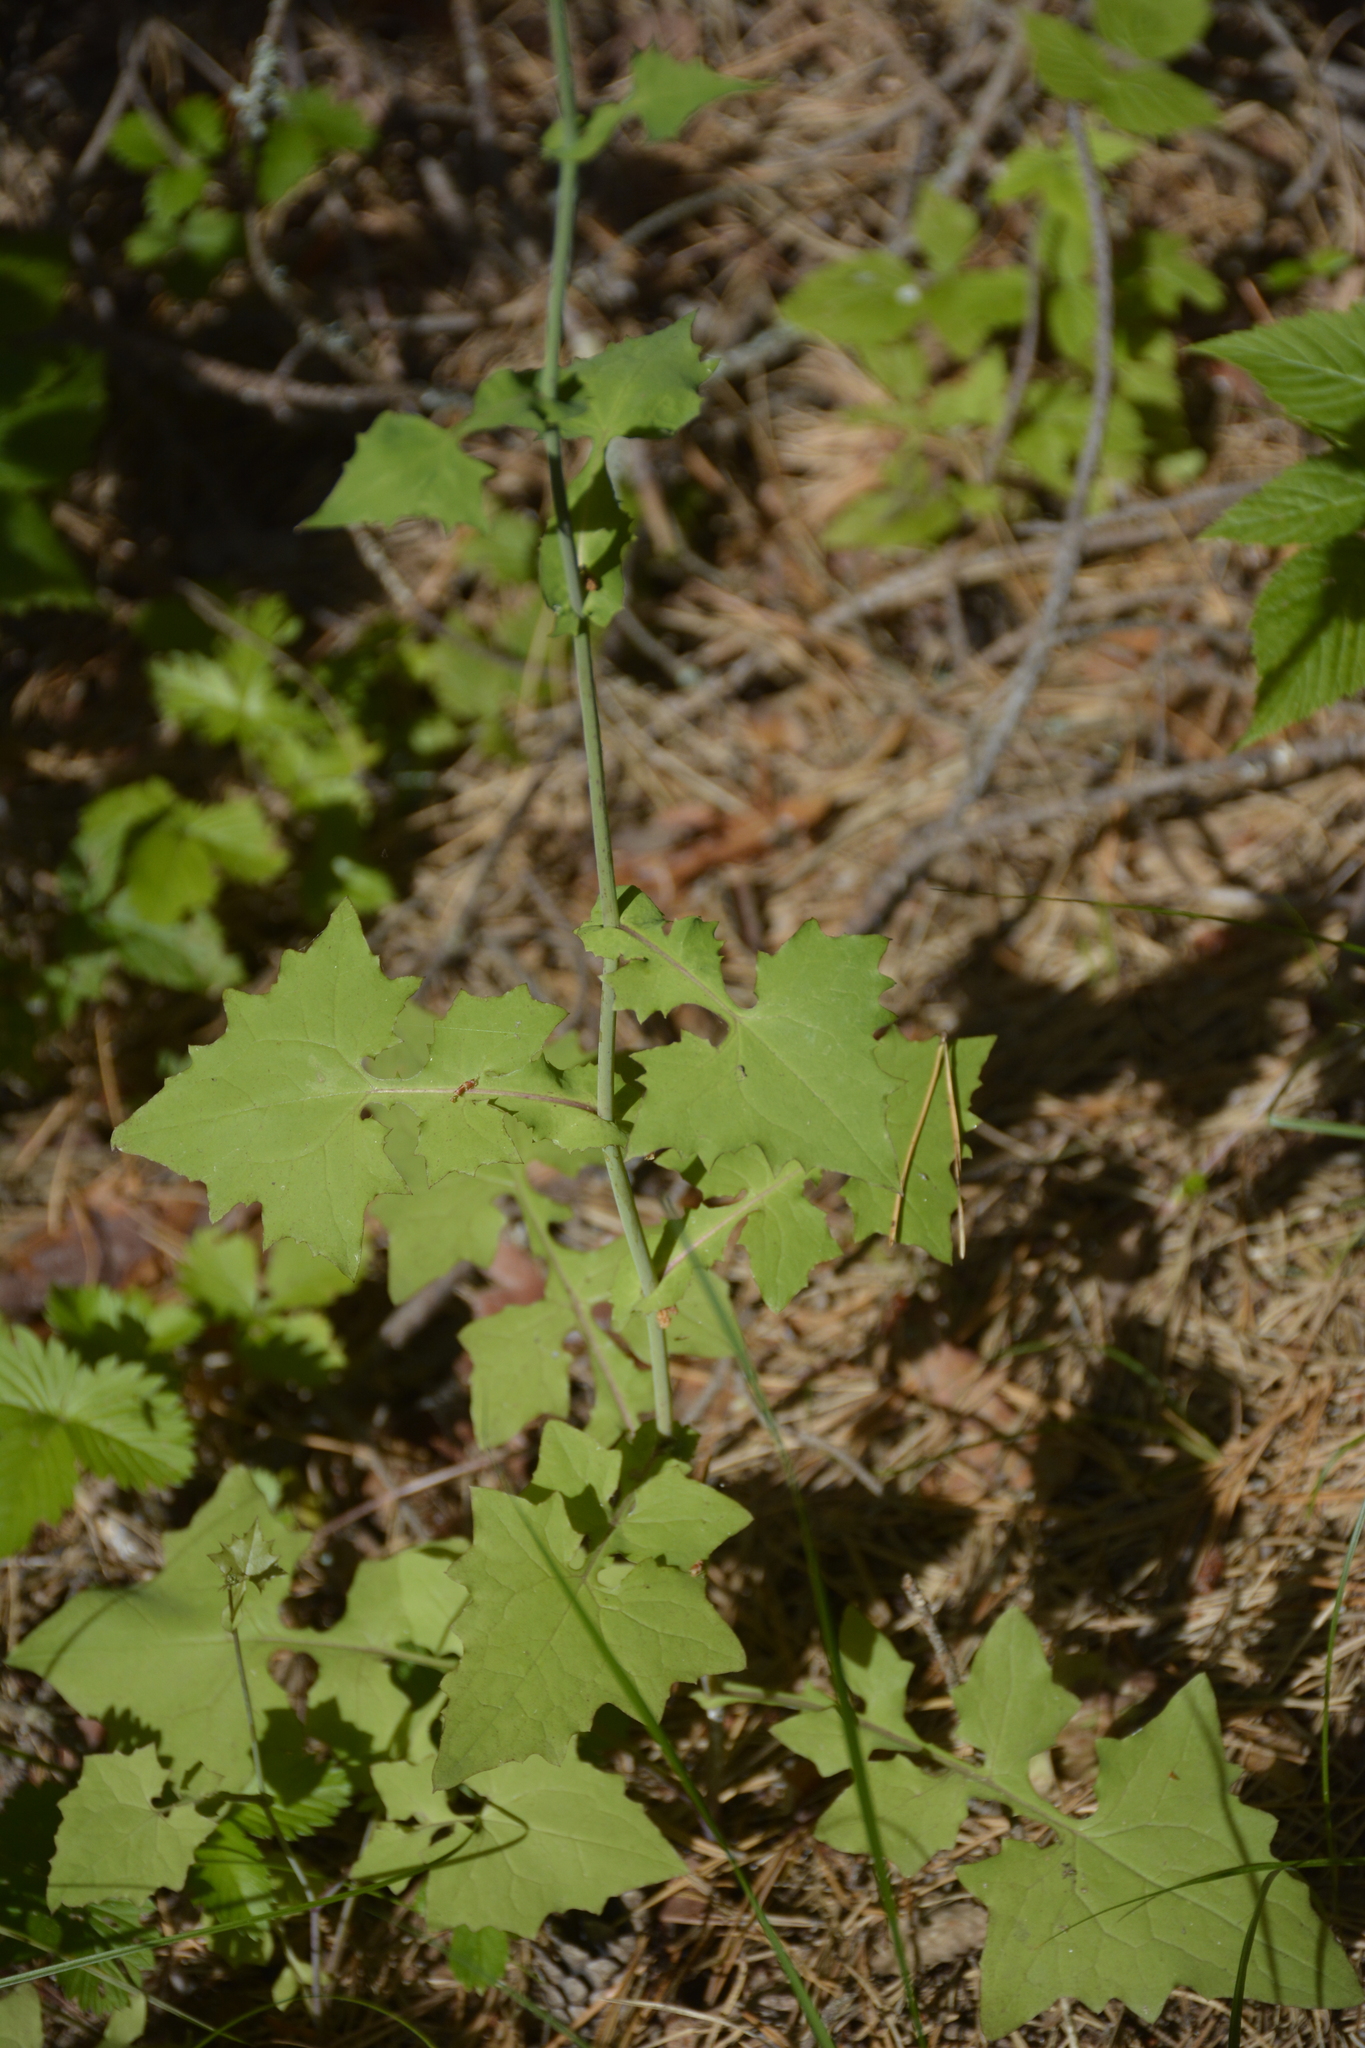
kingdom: Plantae
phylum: Tracheophyta
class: Magnoliopsida
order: Asterales
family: Asteraceae
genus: Mycelis
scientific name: Mycelis muralis
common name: Wall lettuce
